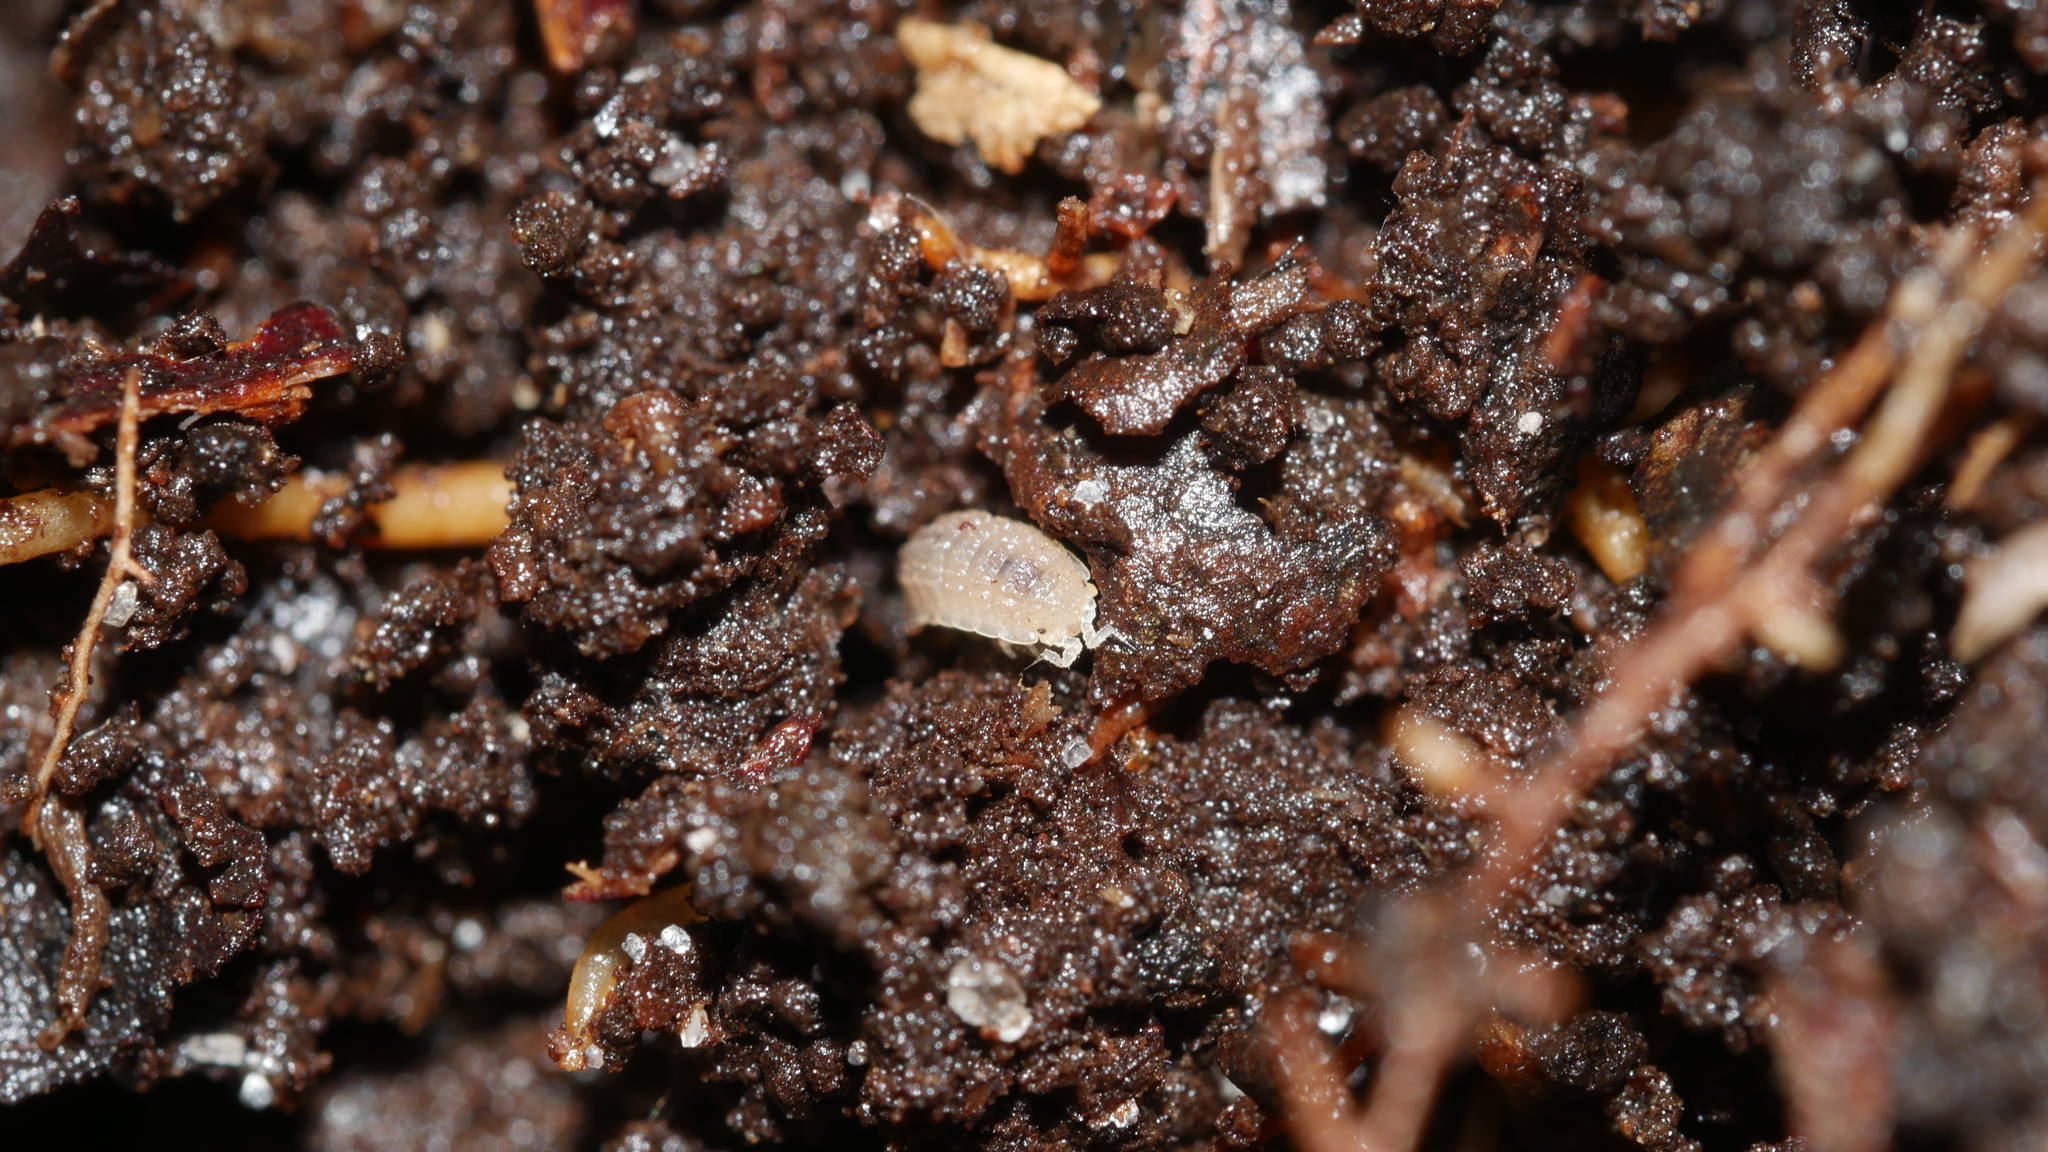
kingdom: Animalia
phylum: Arthropoda
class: Malacostraca
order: Isopoda
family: Trichoniscidae
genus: Haplophthalmus
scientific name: Haplophthalmus danicus
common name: Pillbug
